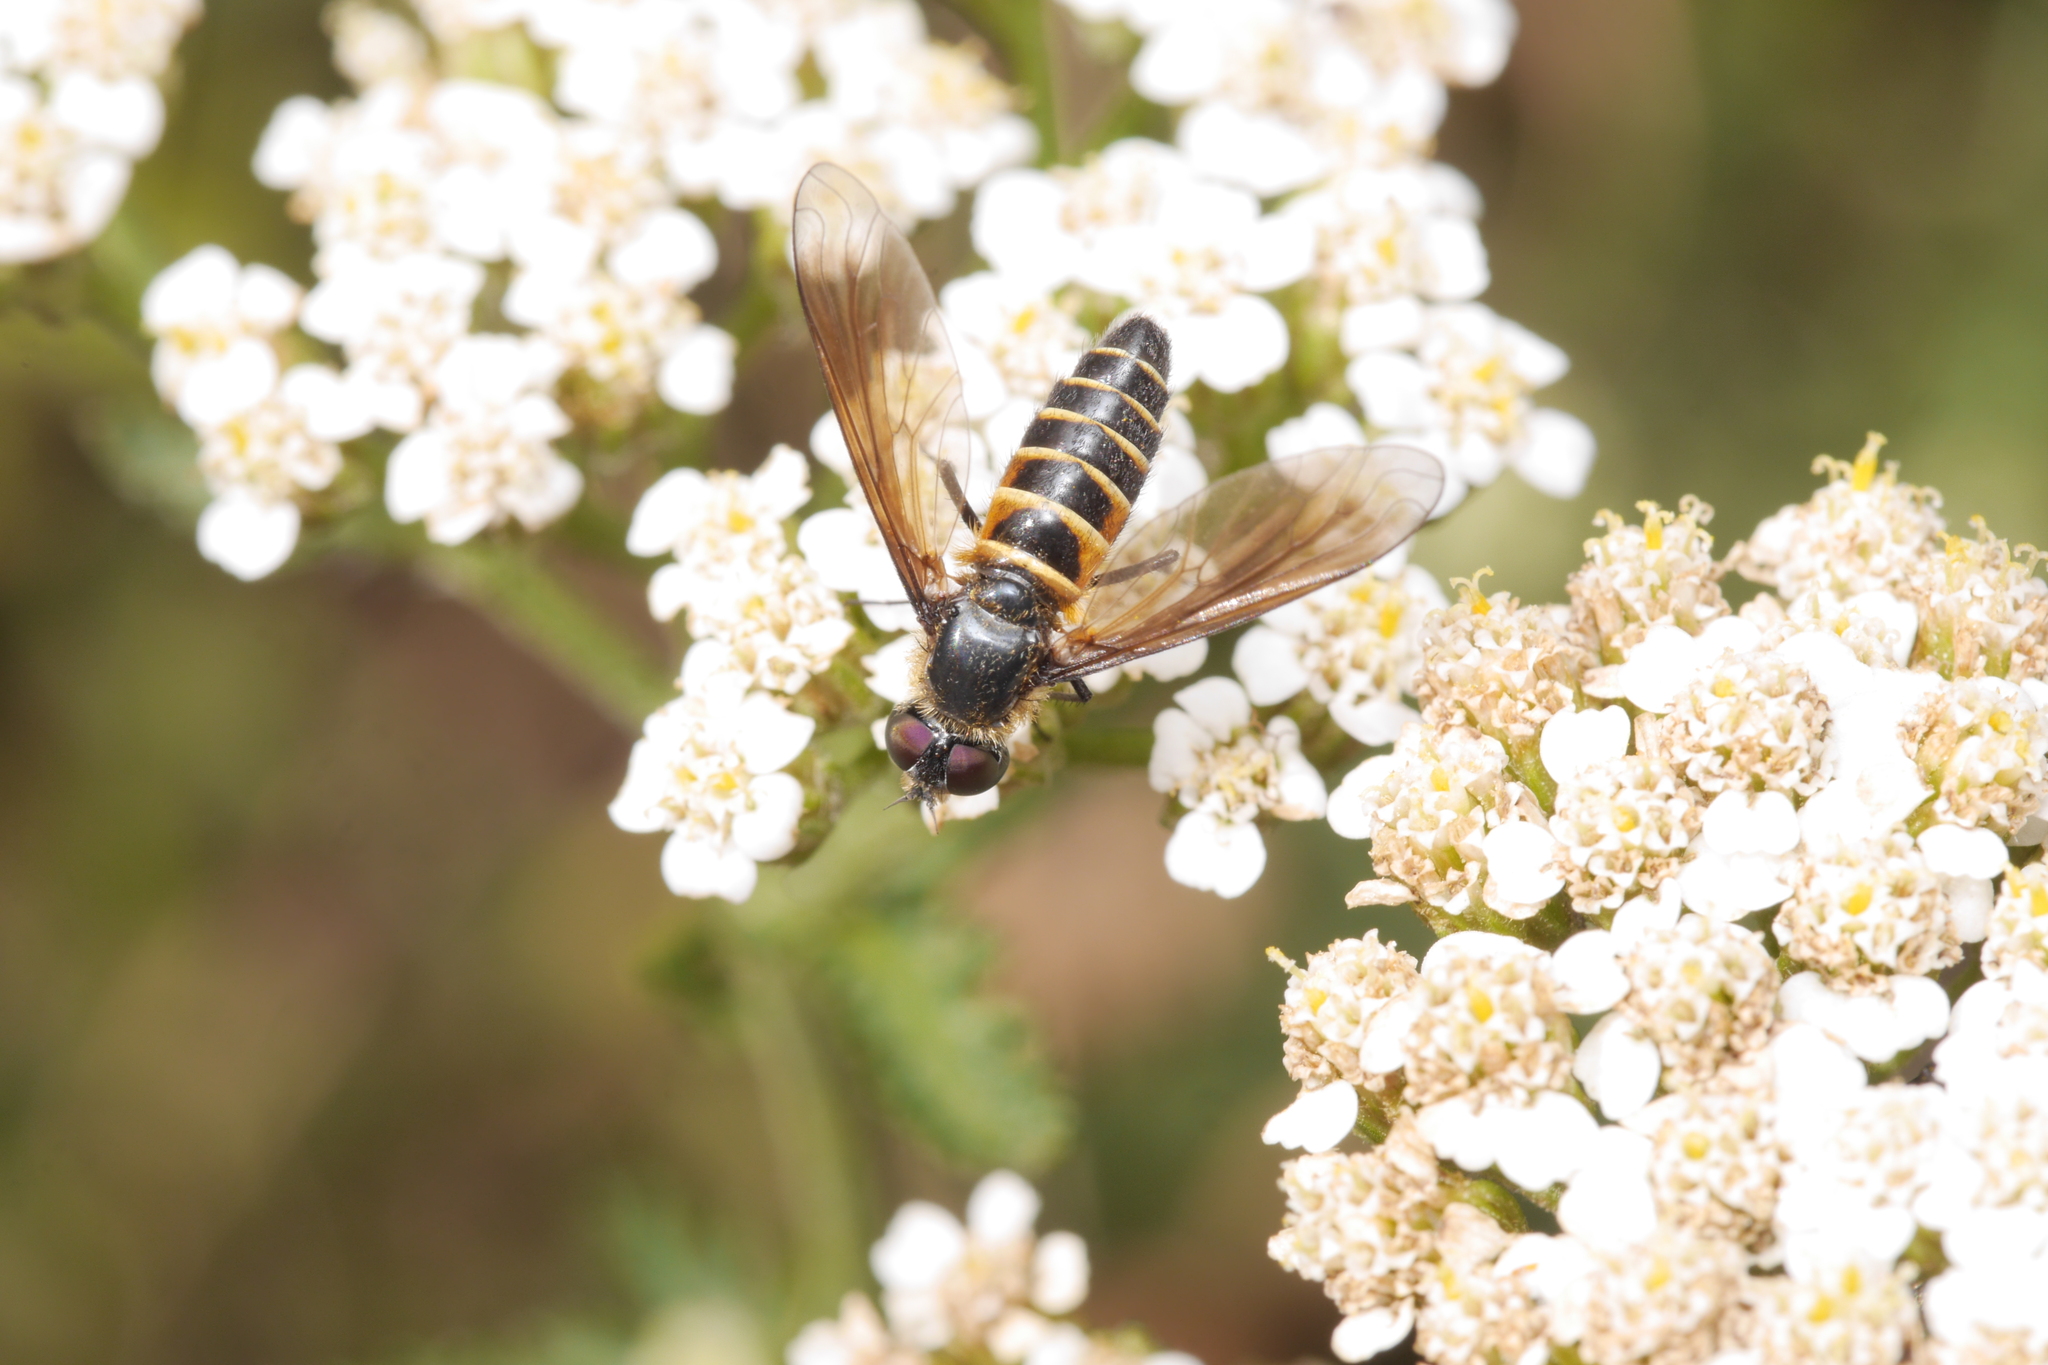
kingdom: Animalia
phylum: Arthropoda
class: Insecta
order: Diptera
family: Bombyliidae
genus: Lomatia
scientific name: Lomatia lateralis
